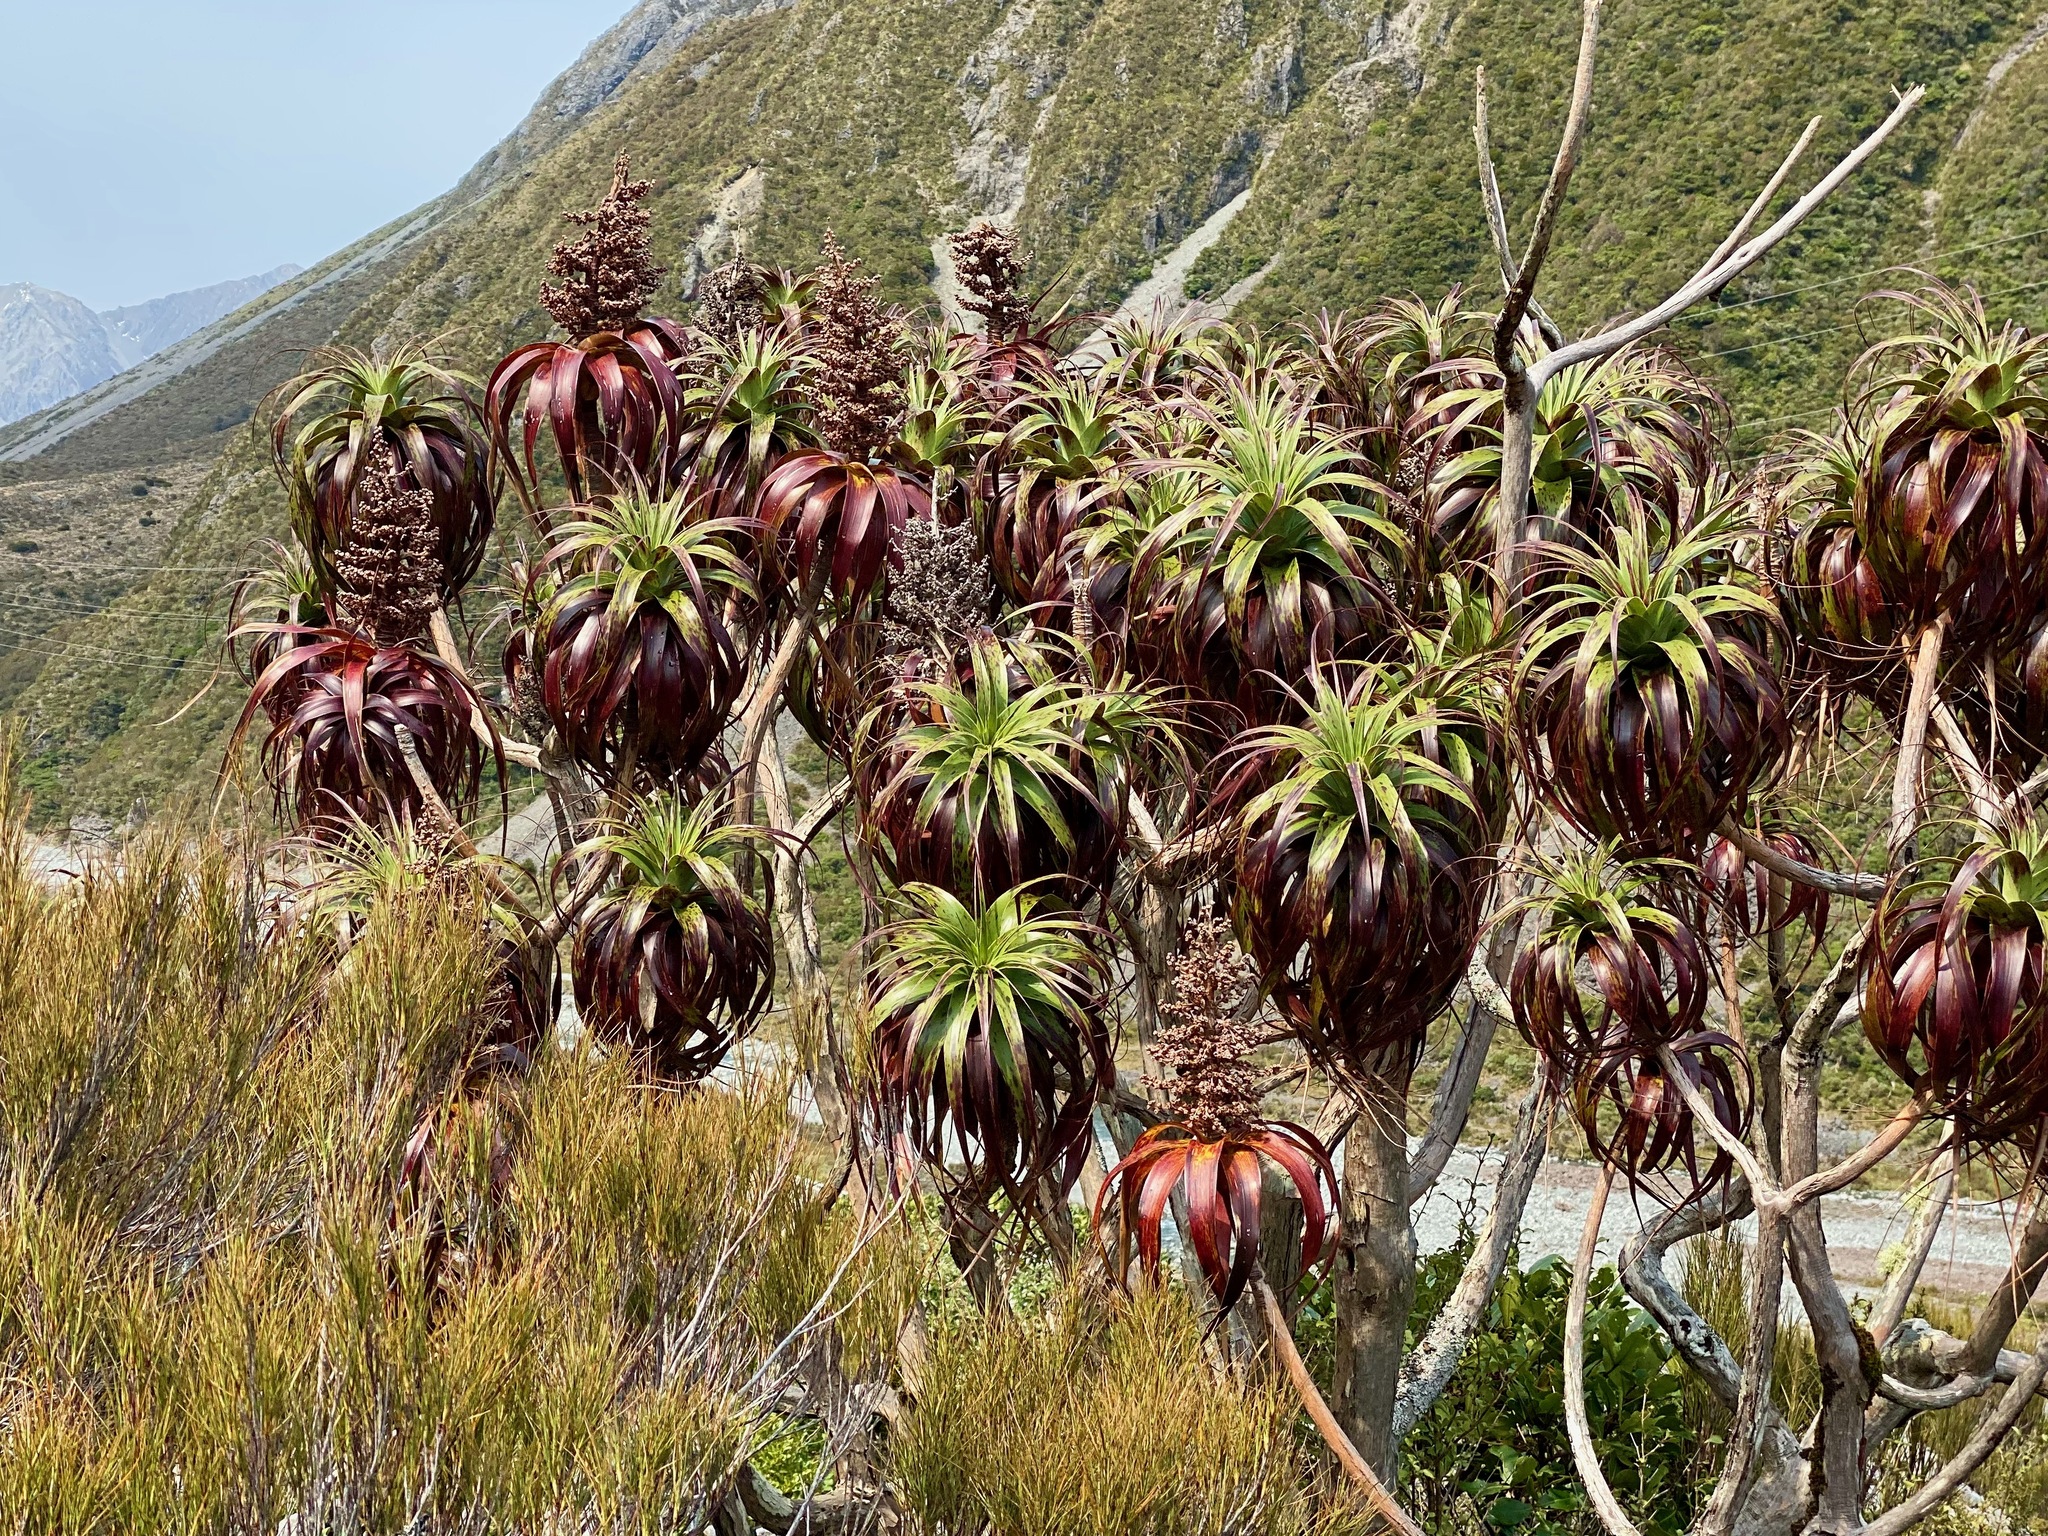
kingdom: Plantae
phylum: Tracheophyta
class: Magnoliopsida
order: Ericales
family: Ericaceae
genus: Dracophyllum
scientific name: Dracophyllum traversii
